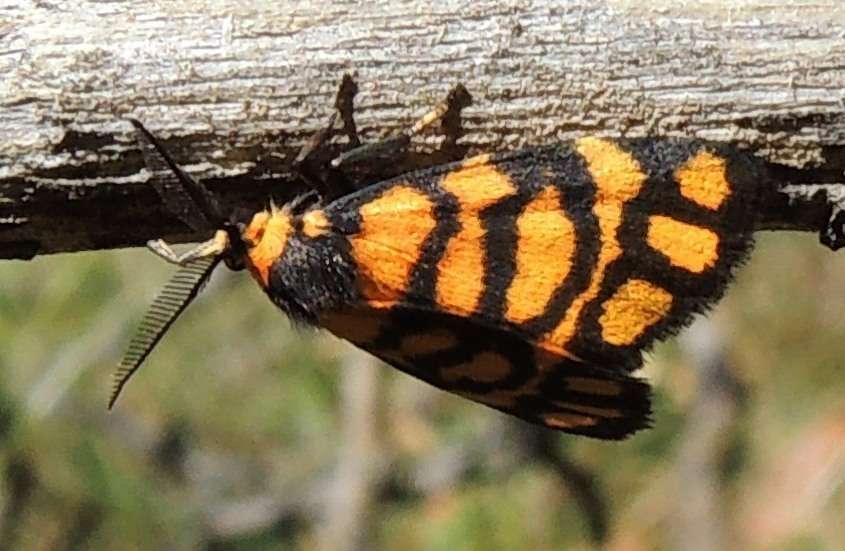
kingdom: Animalia
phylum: Arthropoda
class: Insecta
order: Lepidoptera
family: Erebidae
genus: Asura
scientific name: Asura lydia
